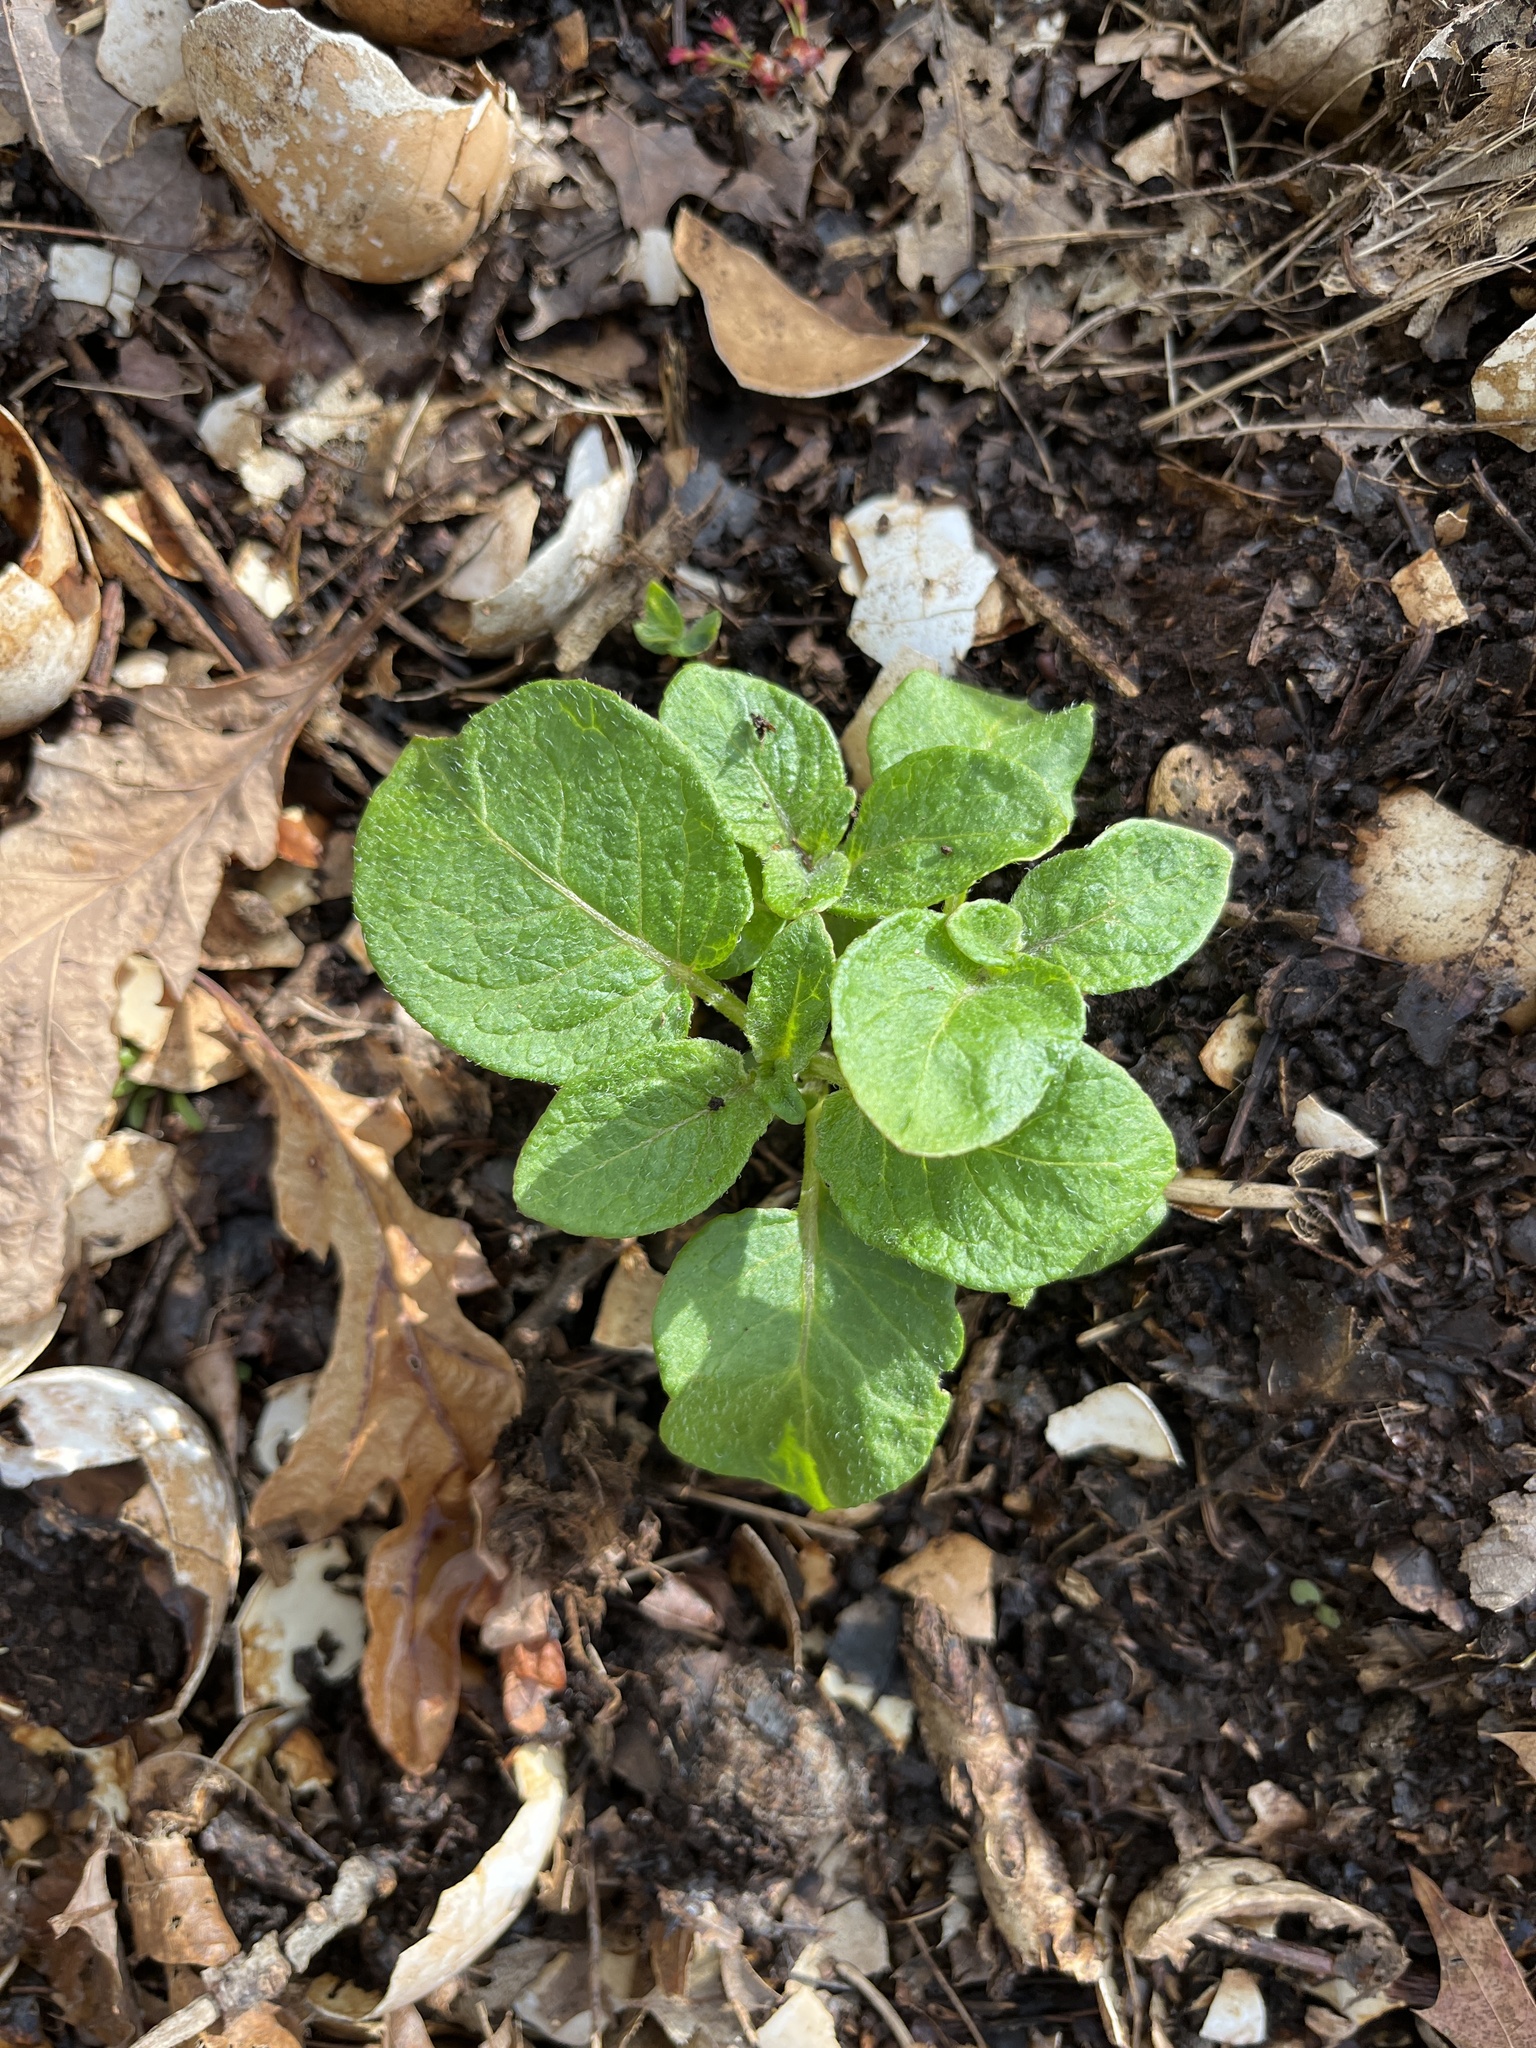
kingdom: Plantae
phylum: Tracheophyta
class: Magnoliopsida
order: Solanales
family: Solanaceae
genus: Solanum
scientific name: Solanum tuberosum
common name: Potato
